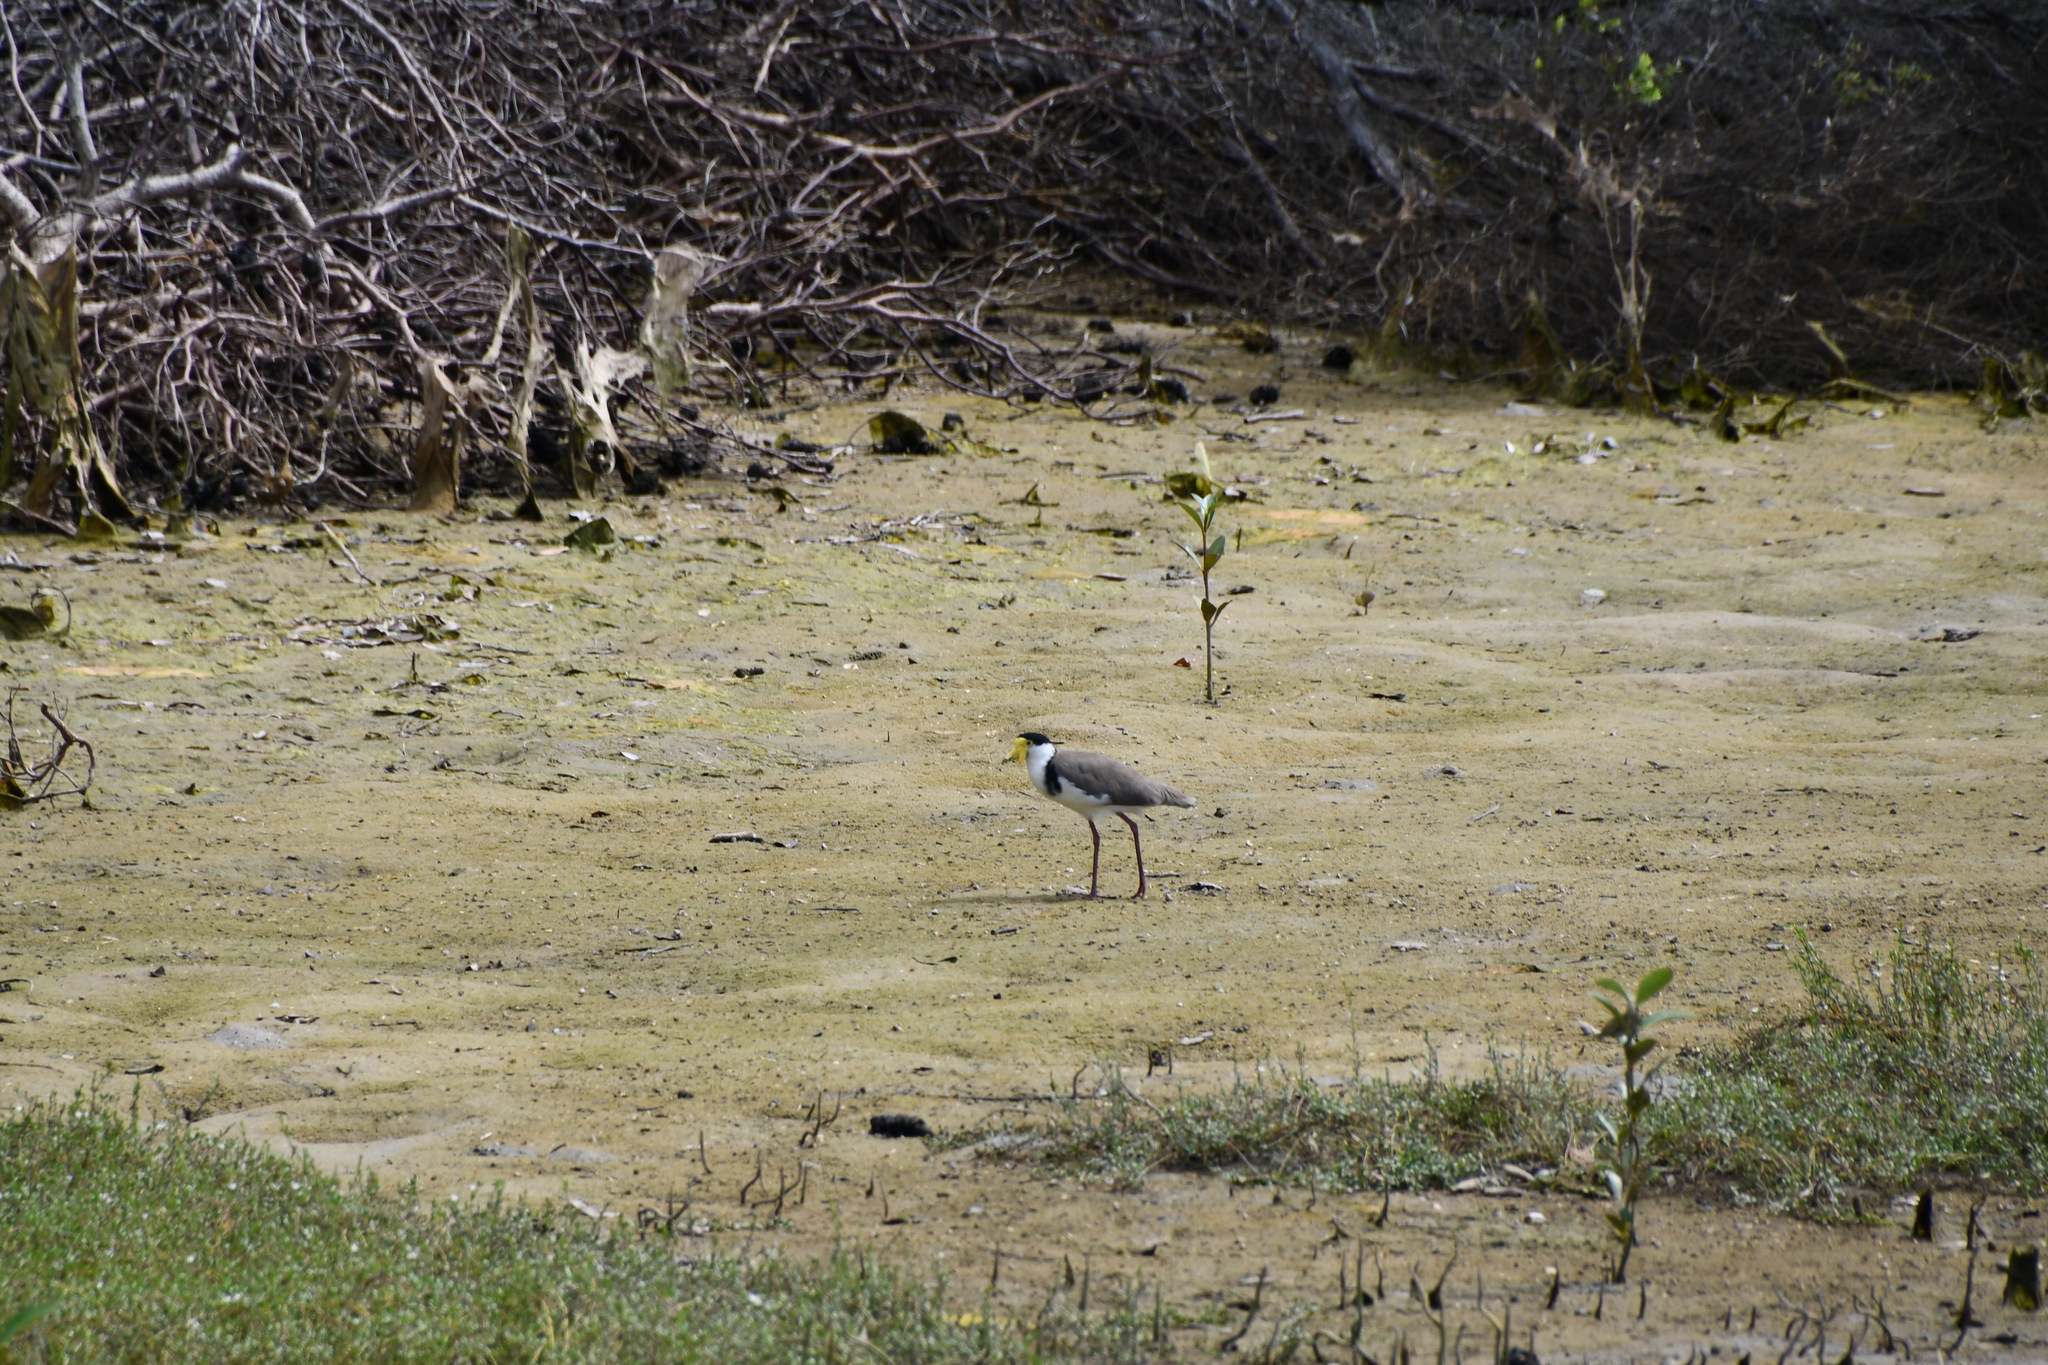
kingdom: Animalia
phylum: Chordata
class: Aves
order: Charadriiformes
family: Charadriidae
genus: Vanellus
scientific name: Vanellus miles
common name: Masked lapwing
